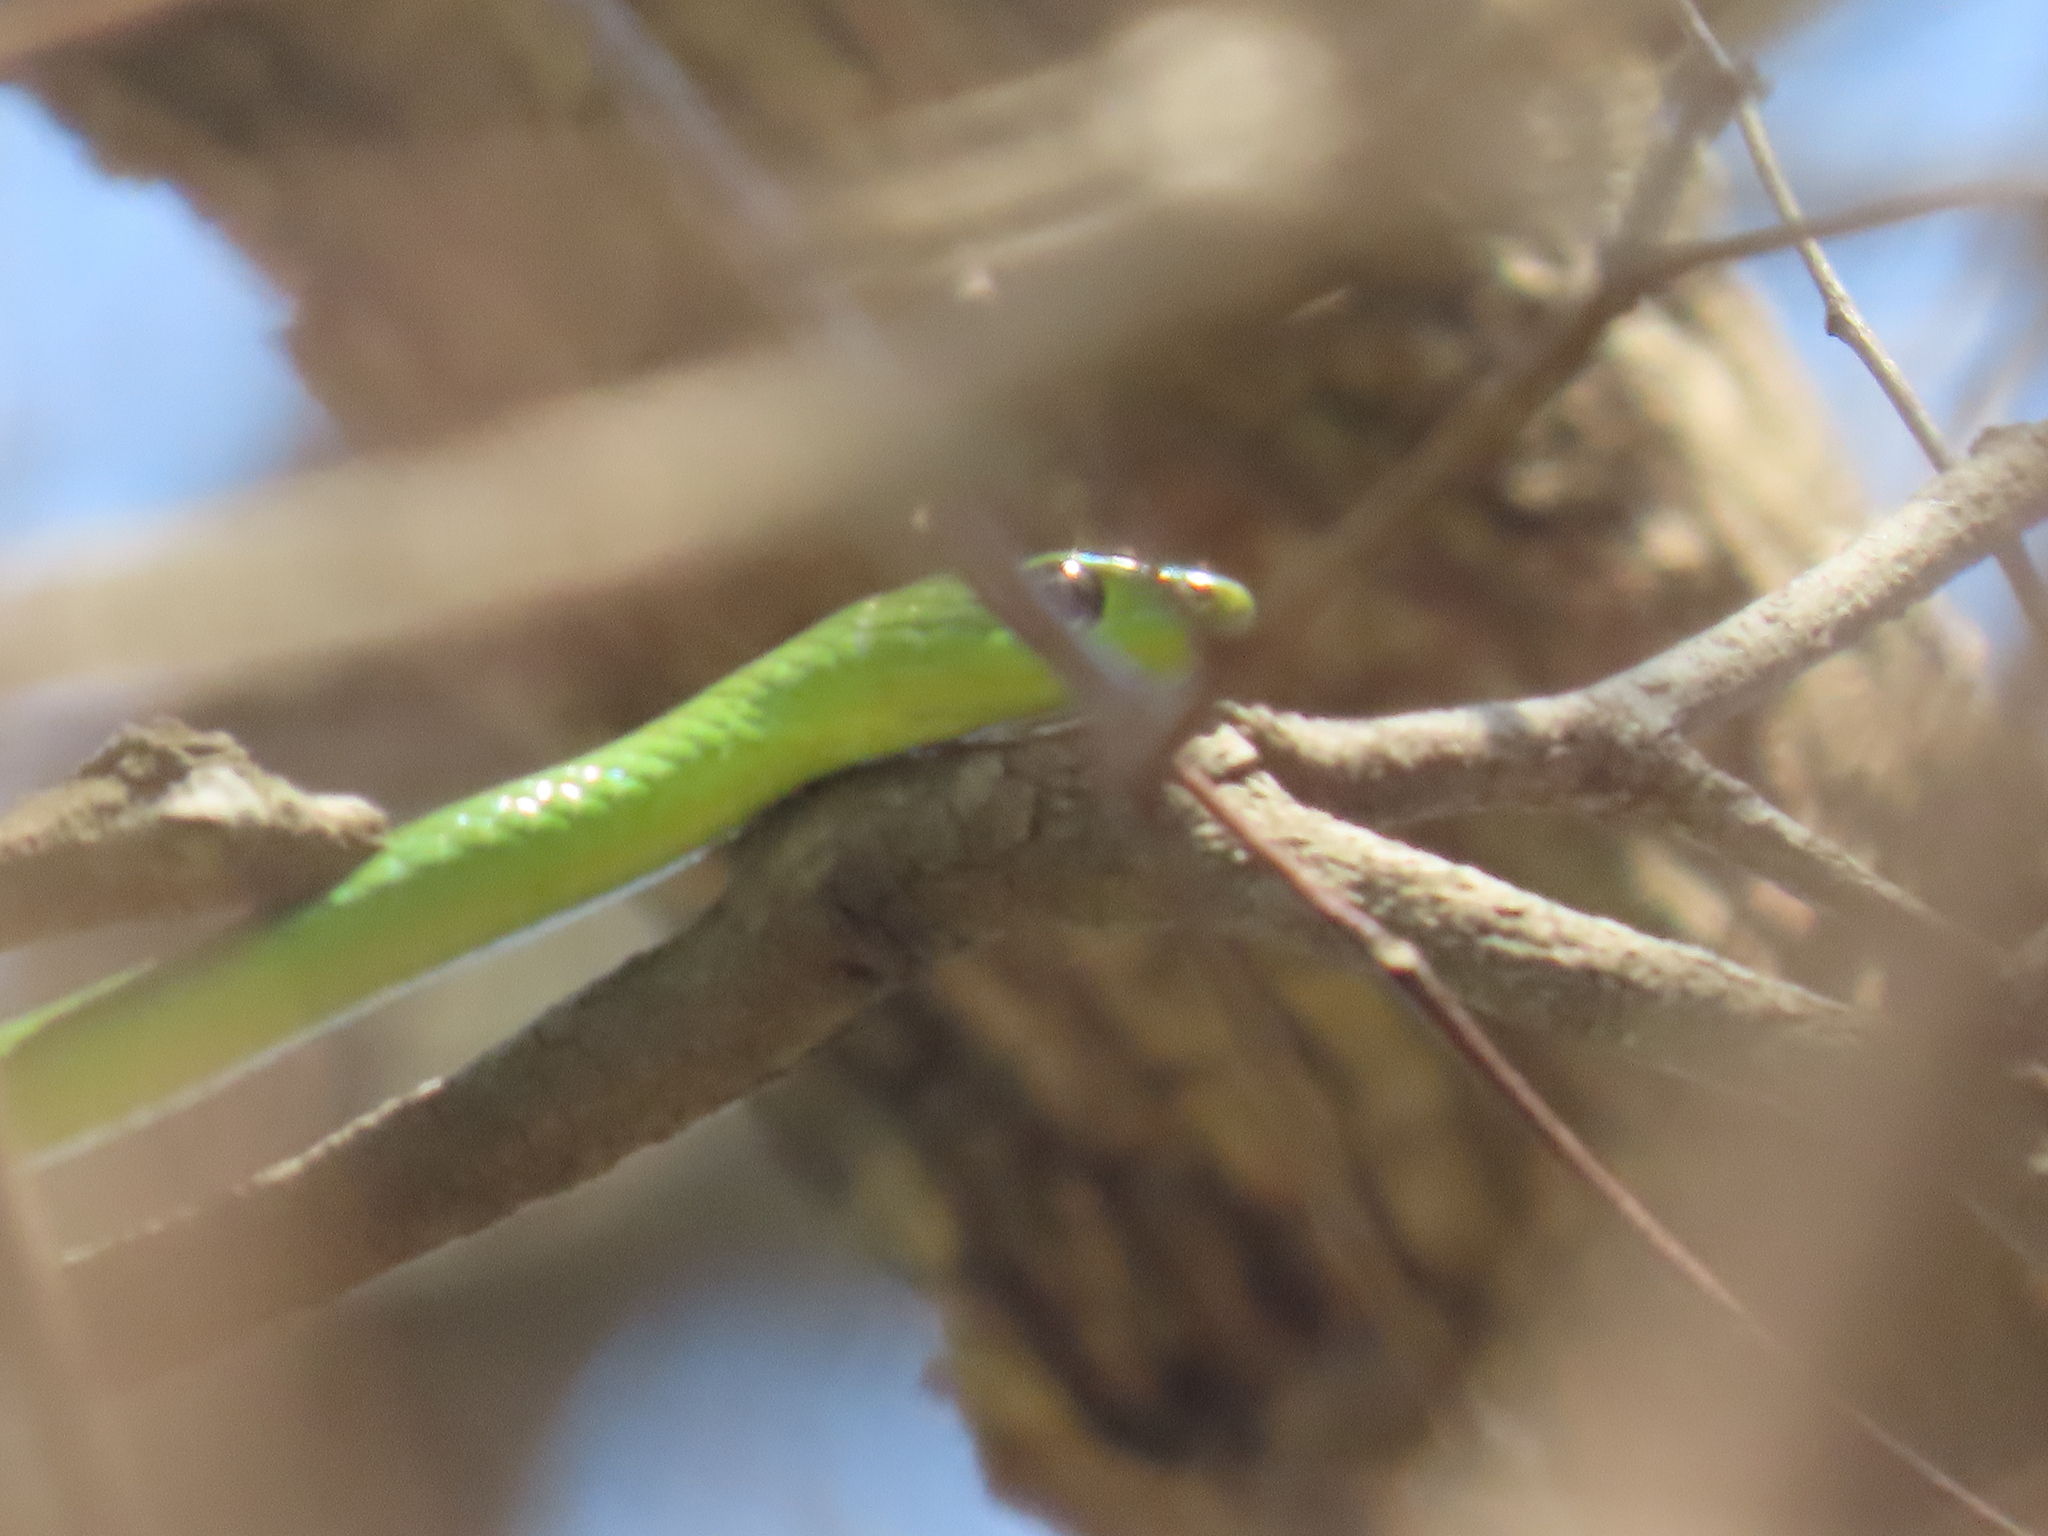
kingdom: Animalia
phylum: Chordata
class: Squamata
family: Colubridae
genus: Philothamnus
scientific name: Philothamnus natalensis
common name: Eastern natal green snake
